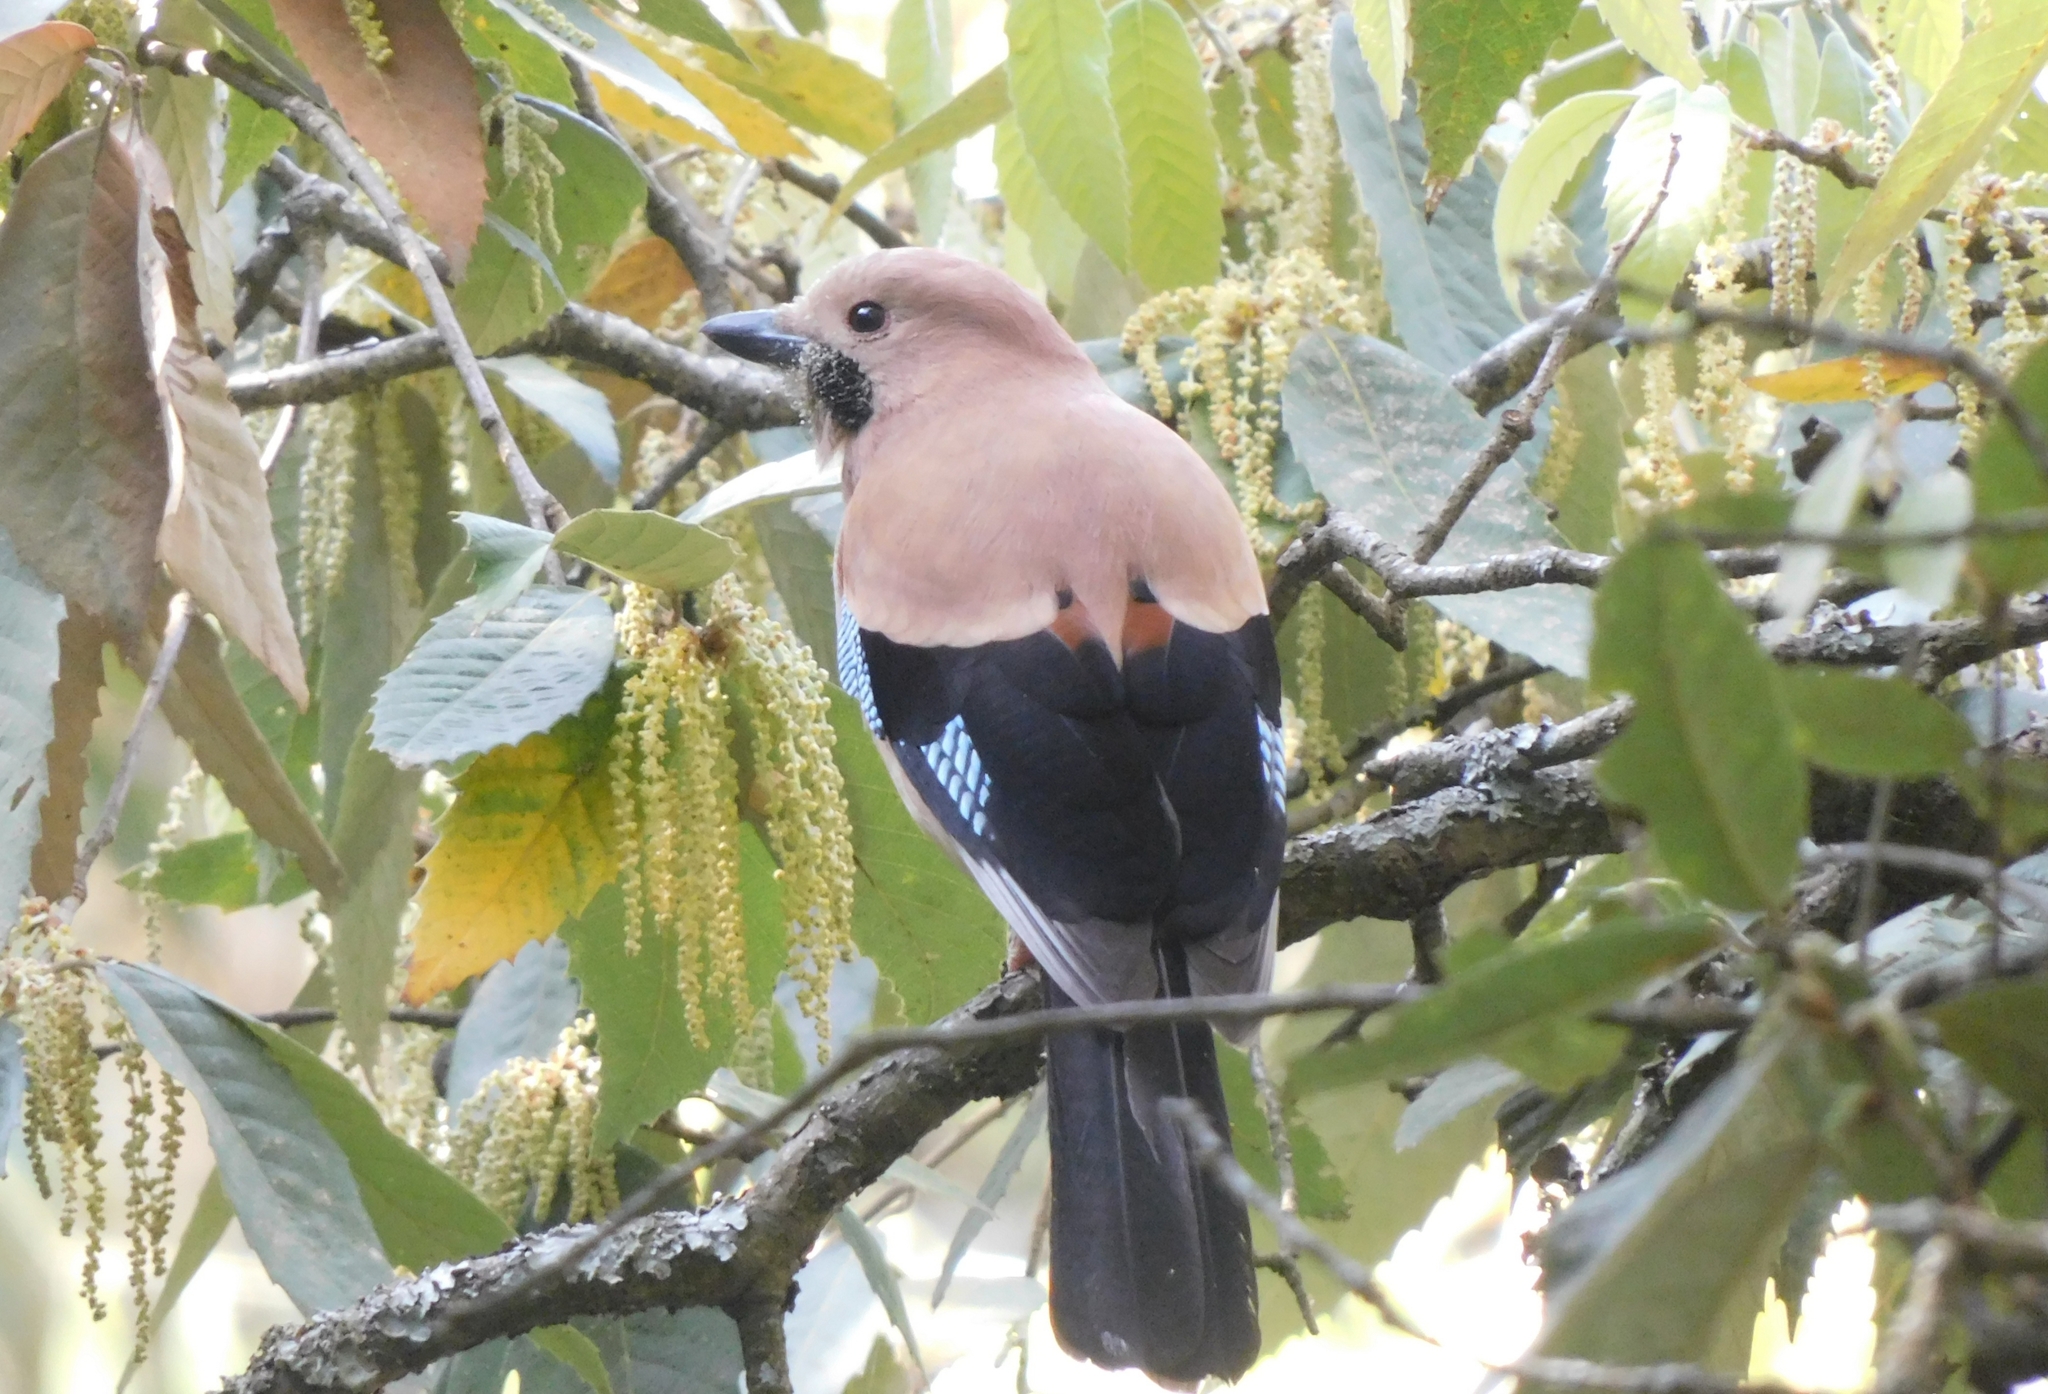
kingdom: Animalia
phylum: Chordata
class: Aves
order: Passeriformes
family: Corvidae
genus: Garrulus
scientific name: Garrulus glandarius
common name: Eurasian jay
